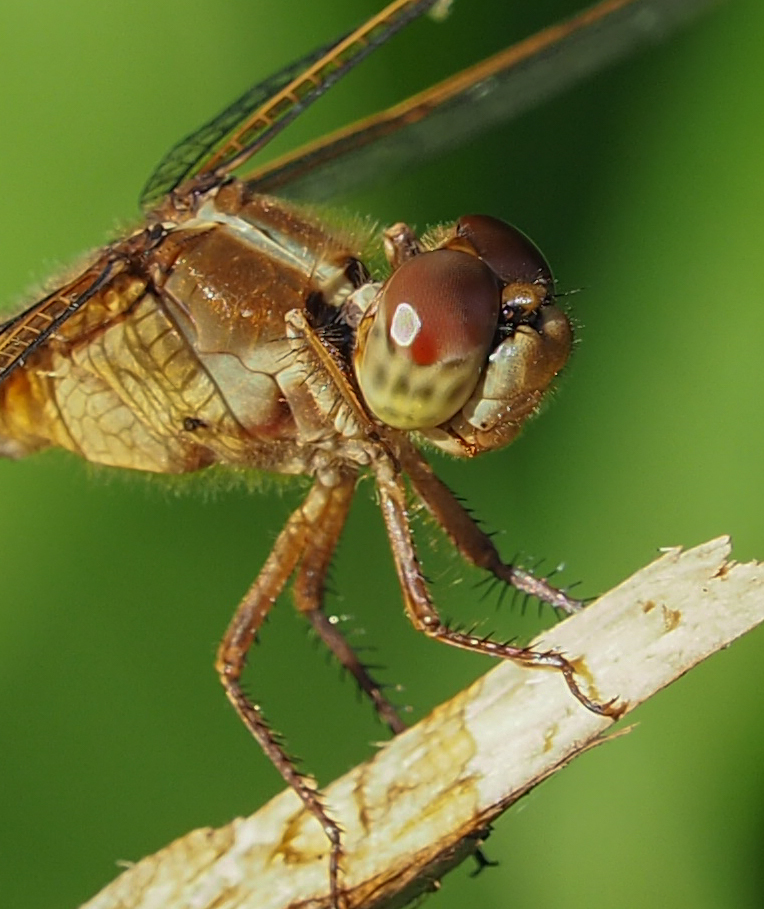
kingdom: Animalia
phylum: Arthropoda
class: Insecta
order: Odonata
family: Libellulidae
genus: Libellula
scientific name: Libellula needhami
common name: Needham's skimmer
